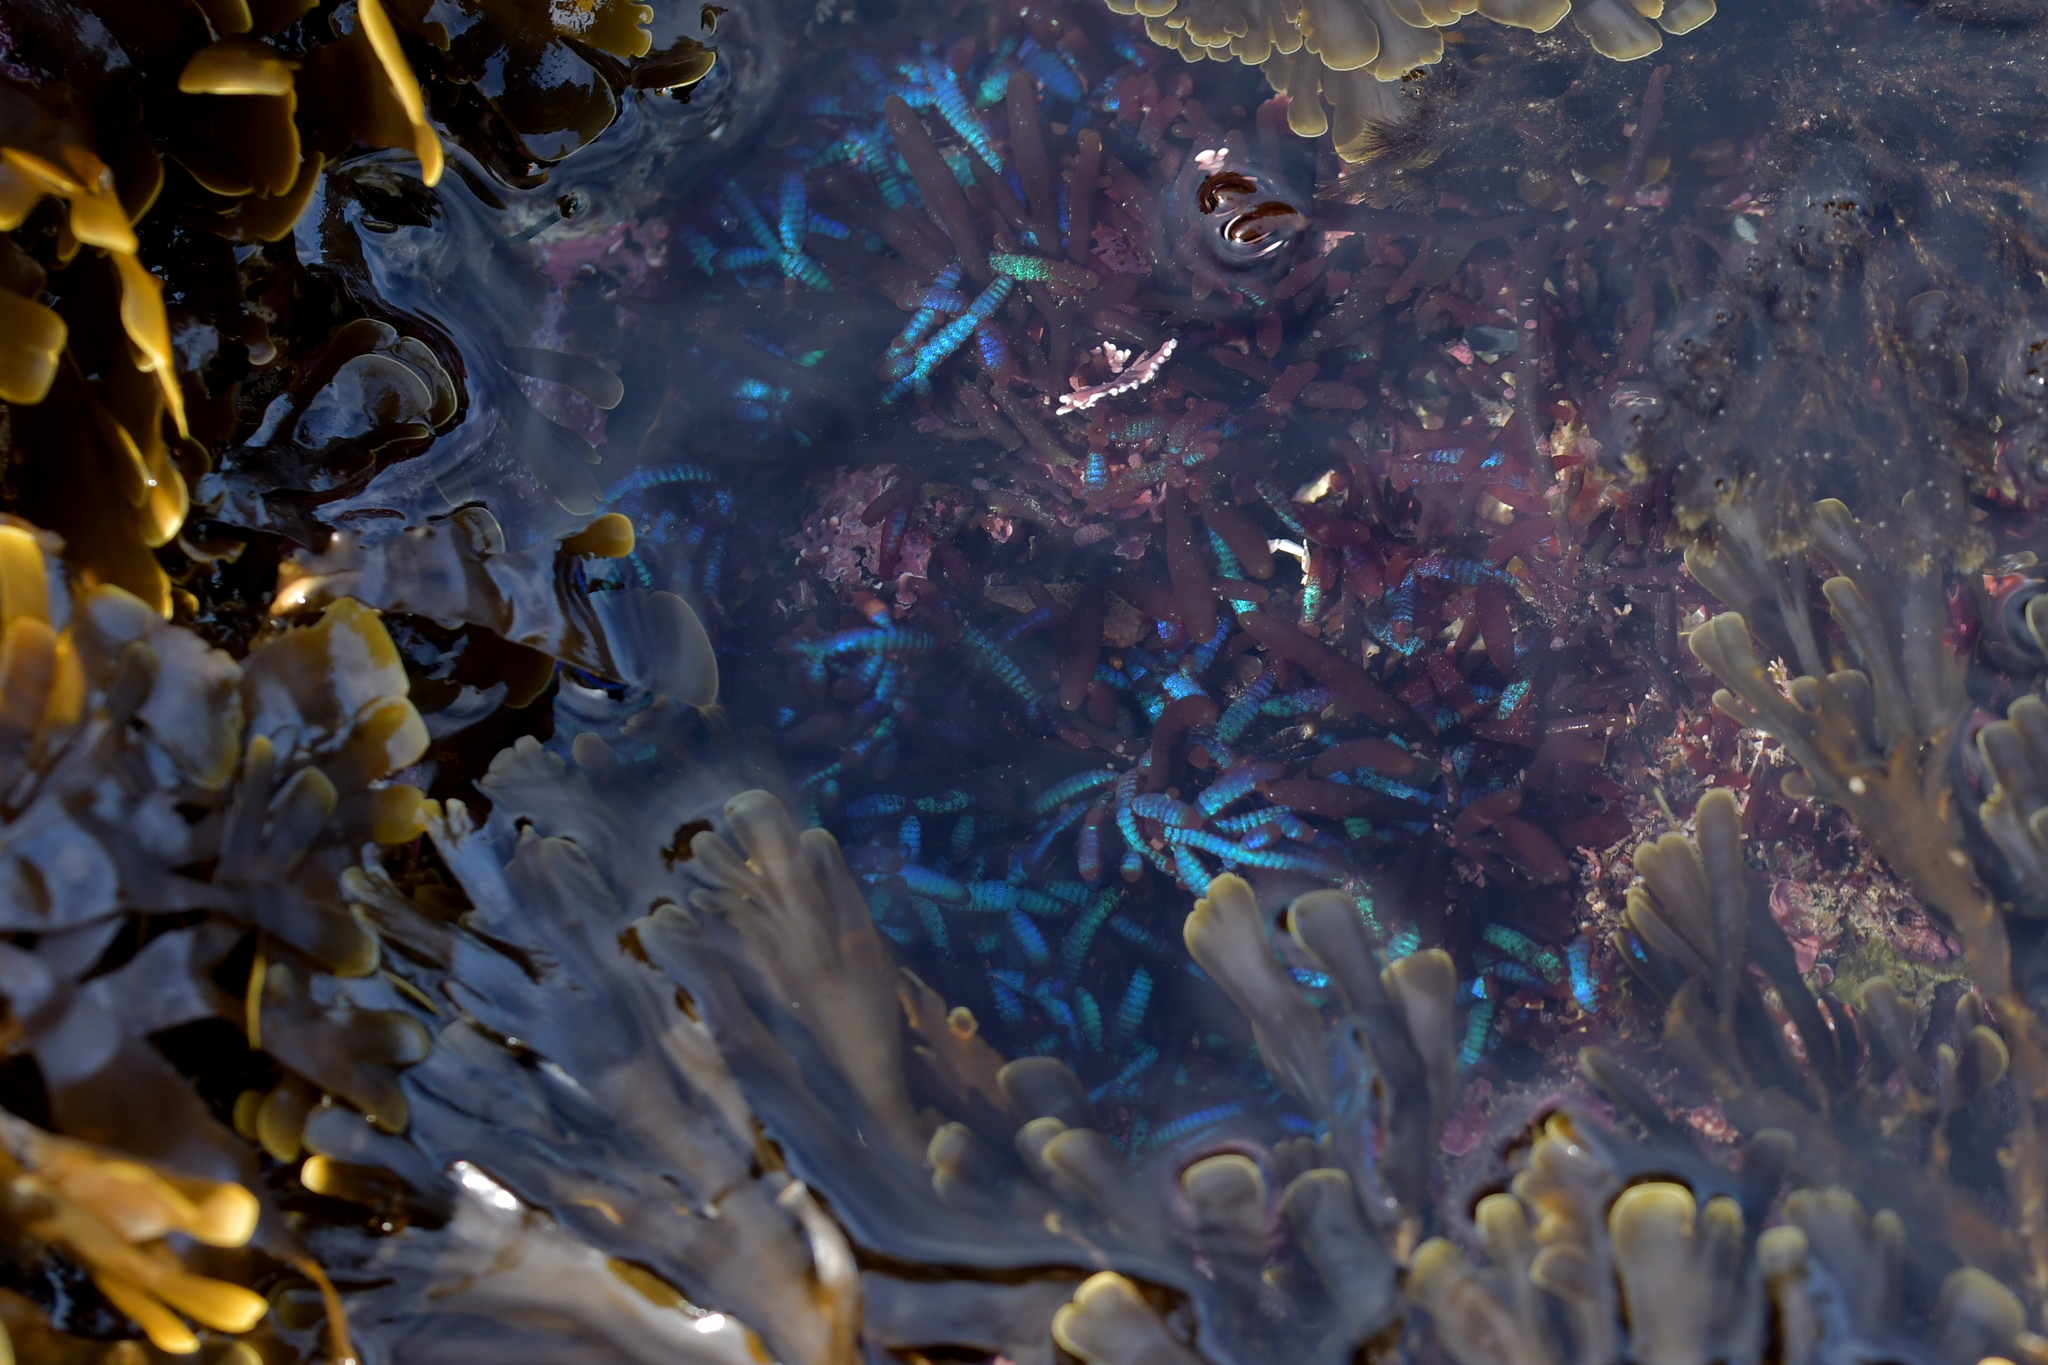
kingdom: Plantae
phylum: Rhodophyta
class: Florideophyceae
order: Rhodymeniales
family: Champiaceae
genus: Champia
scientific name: Champia laingii
